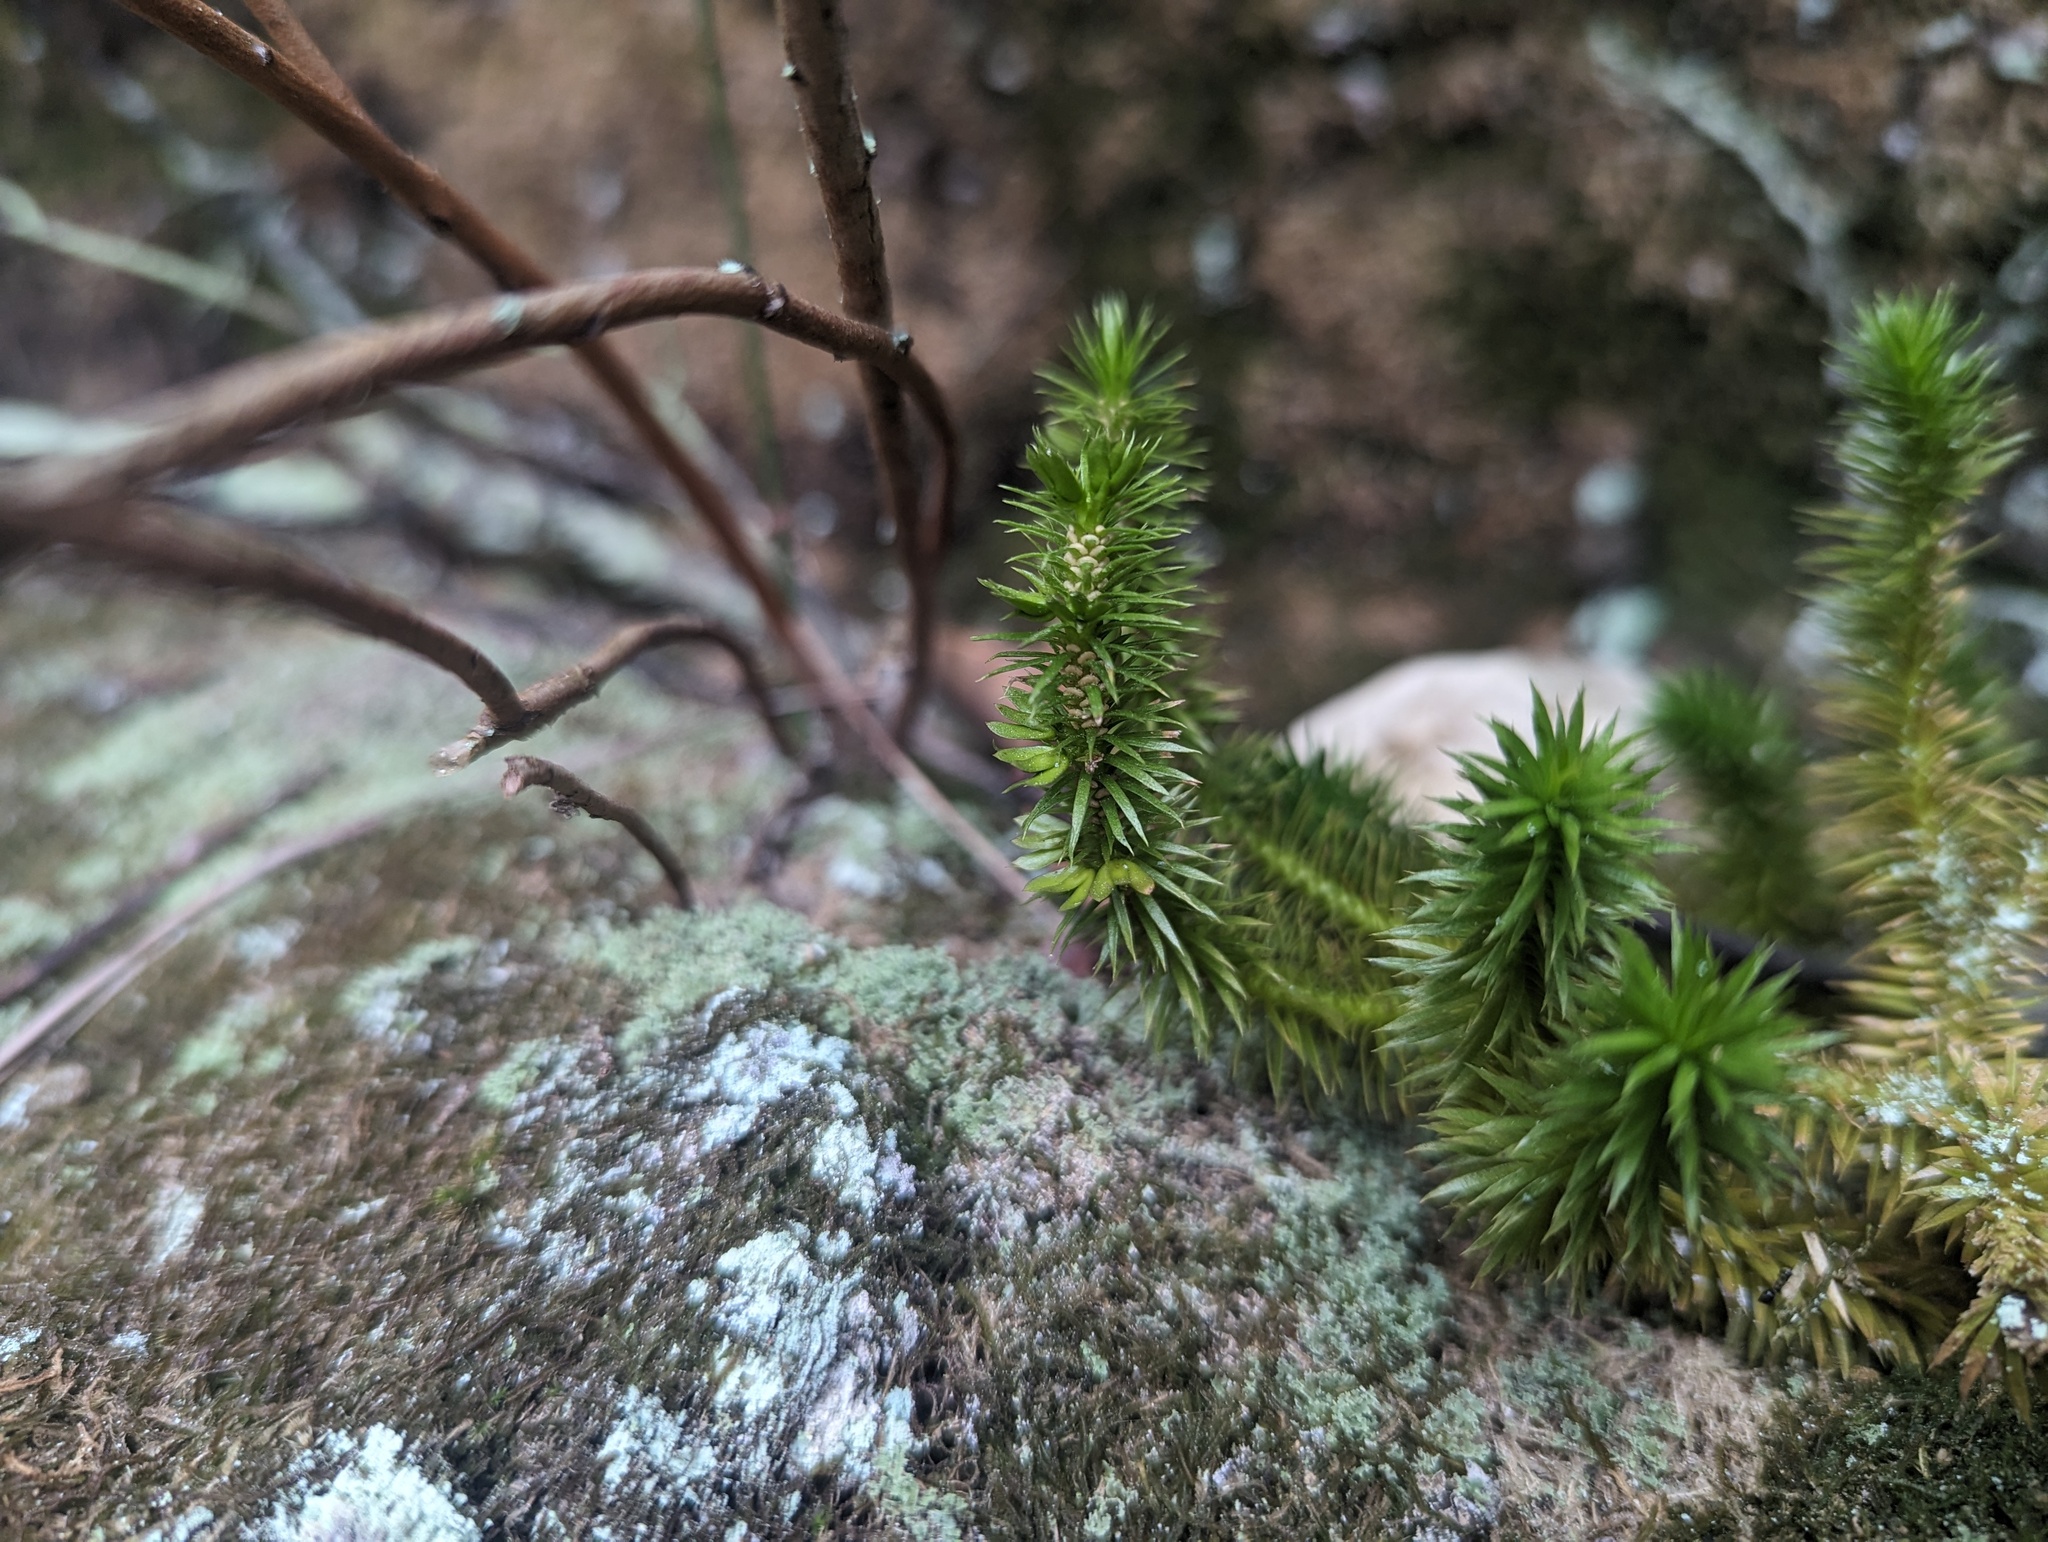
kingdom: Plantae
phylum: Tracheophyta
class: Lycopodiopsida
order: Lycopodiales
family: Lycopodiaceae
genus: Huperzia
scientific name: Huperzia porophila
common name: Rock clubmoss
